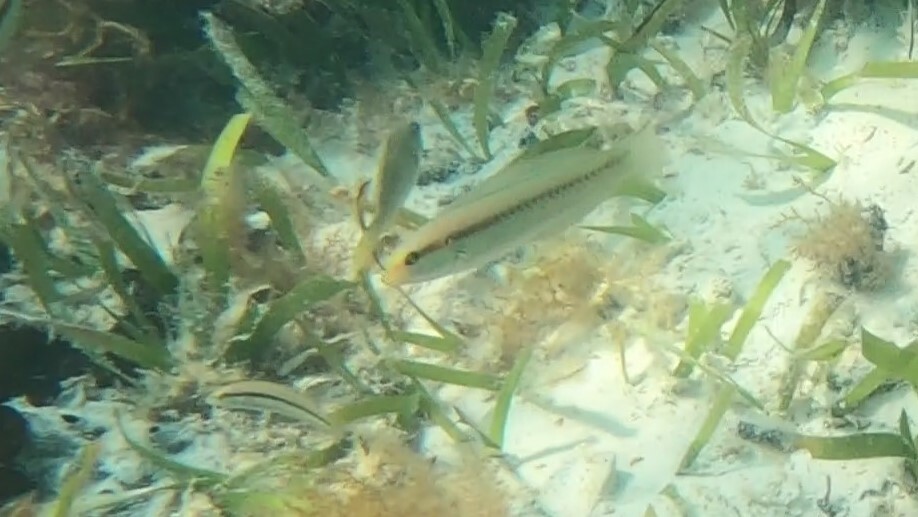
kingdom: Animalia
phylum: Chordata
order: Perciformes
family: Labridae
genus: Halichoeres
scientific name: Halichoeres bivittatus
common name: Slippery dick
